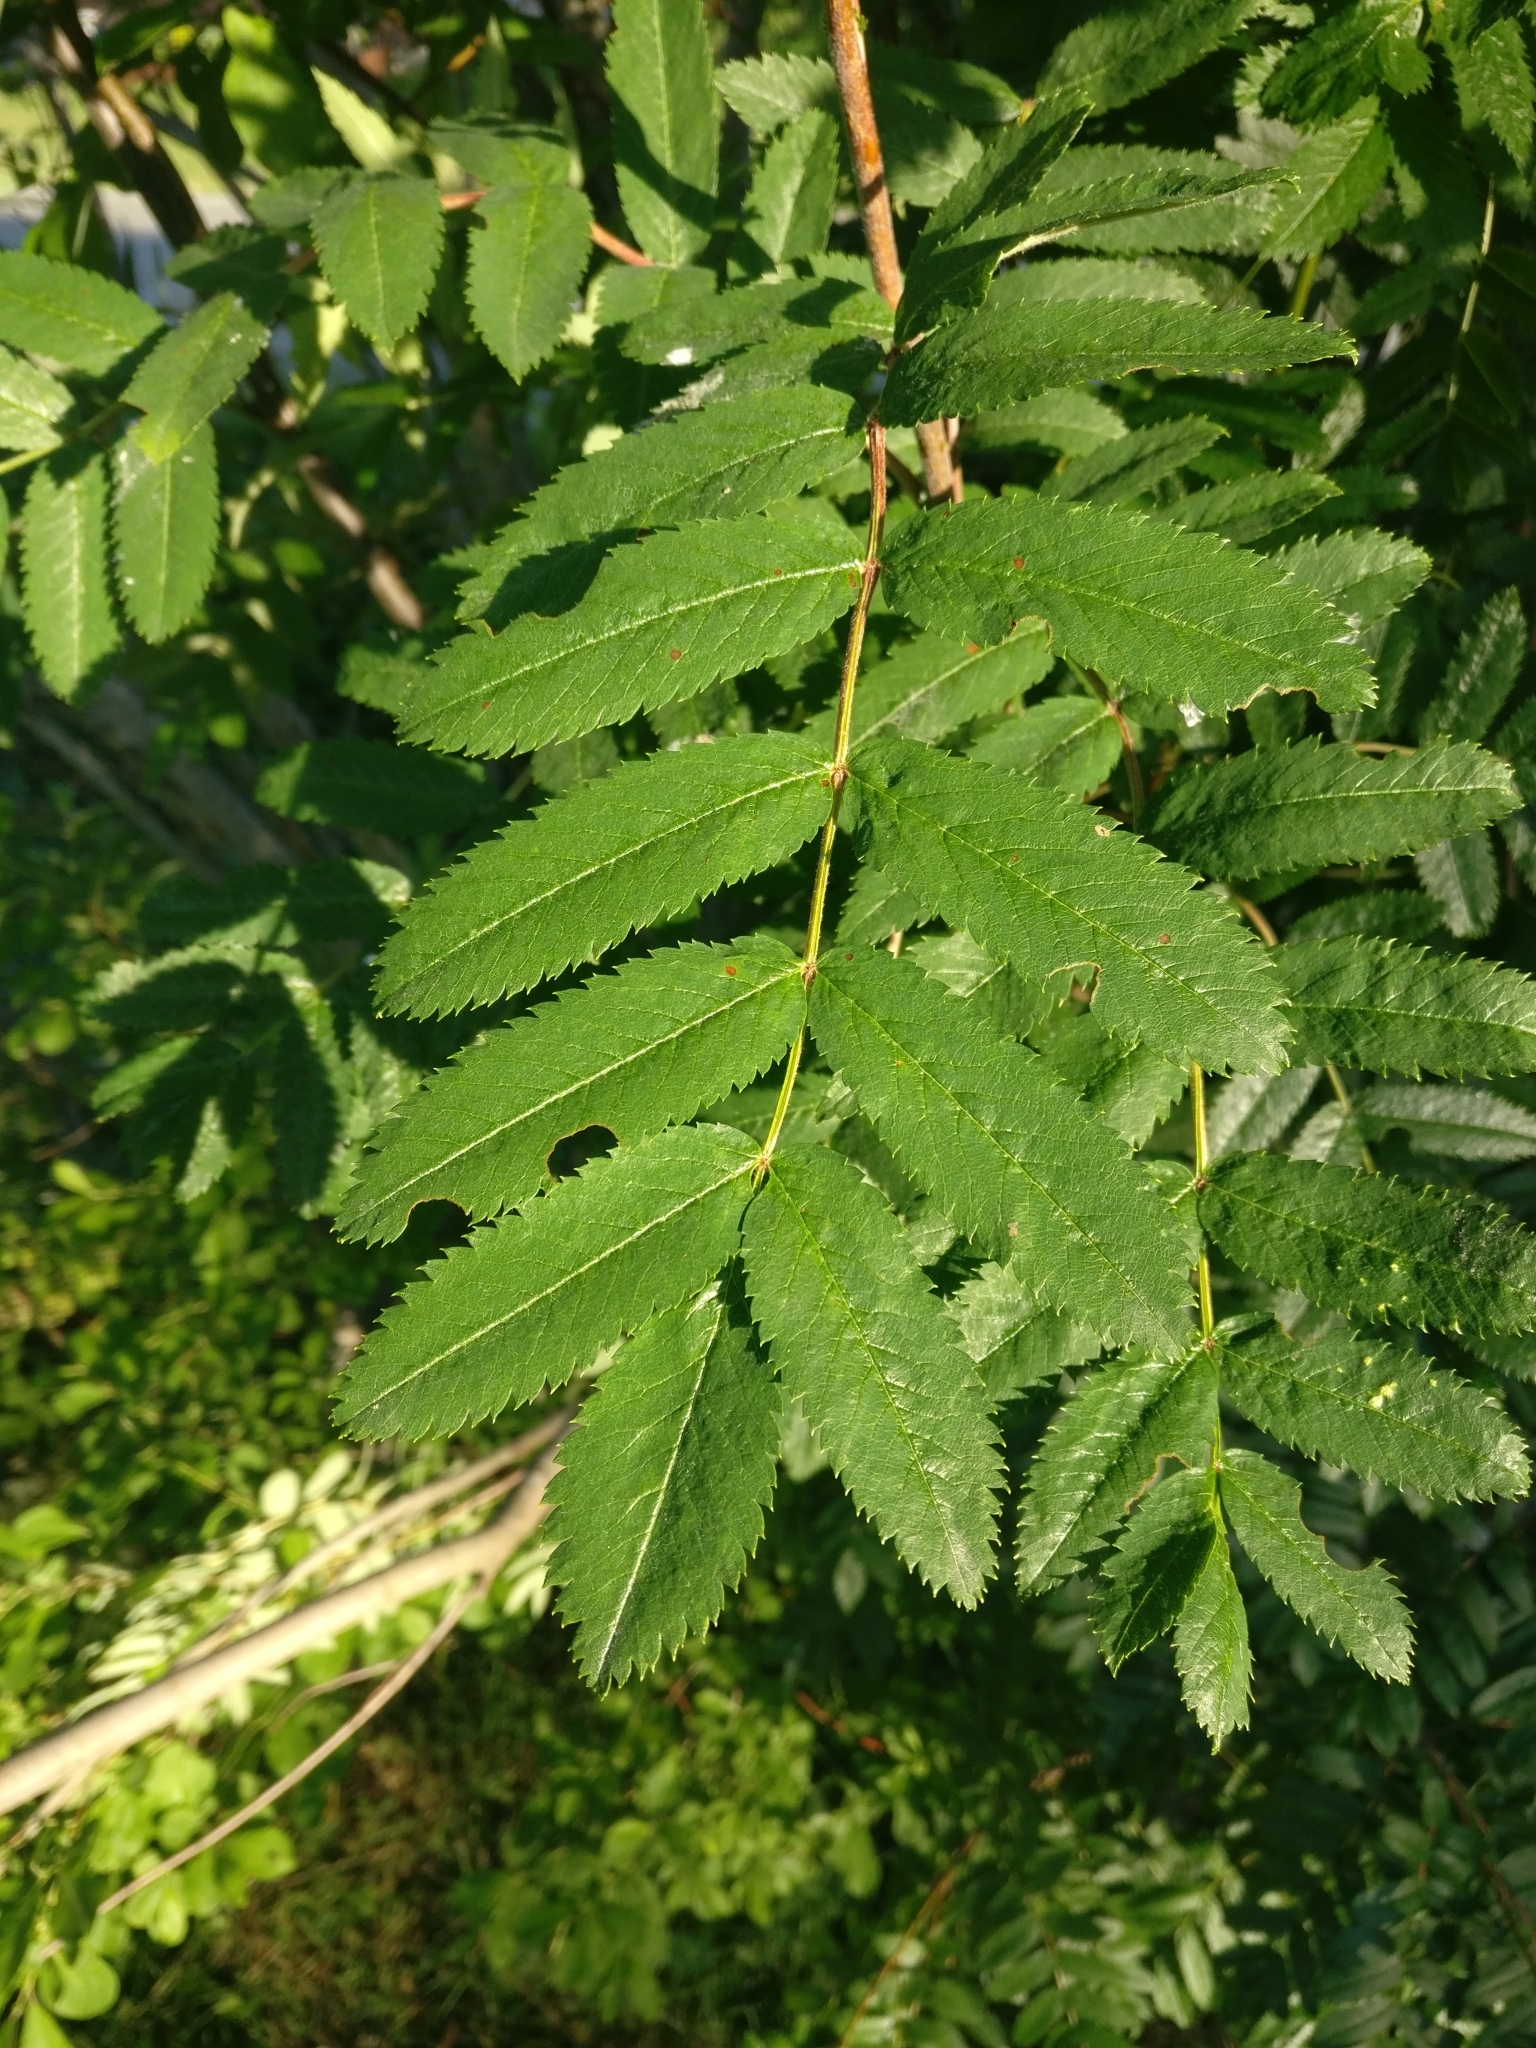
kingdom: Plantae
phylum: Tracheophyta
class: Magnoliopsida
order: Rosales
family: Rosaceae
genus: Sorbus
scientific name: Sorbus aucuparia
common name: Rowan
